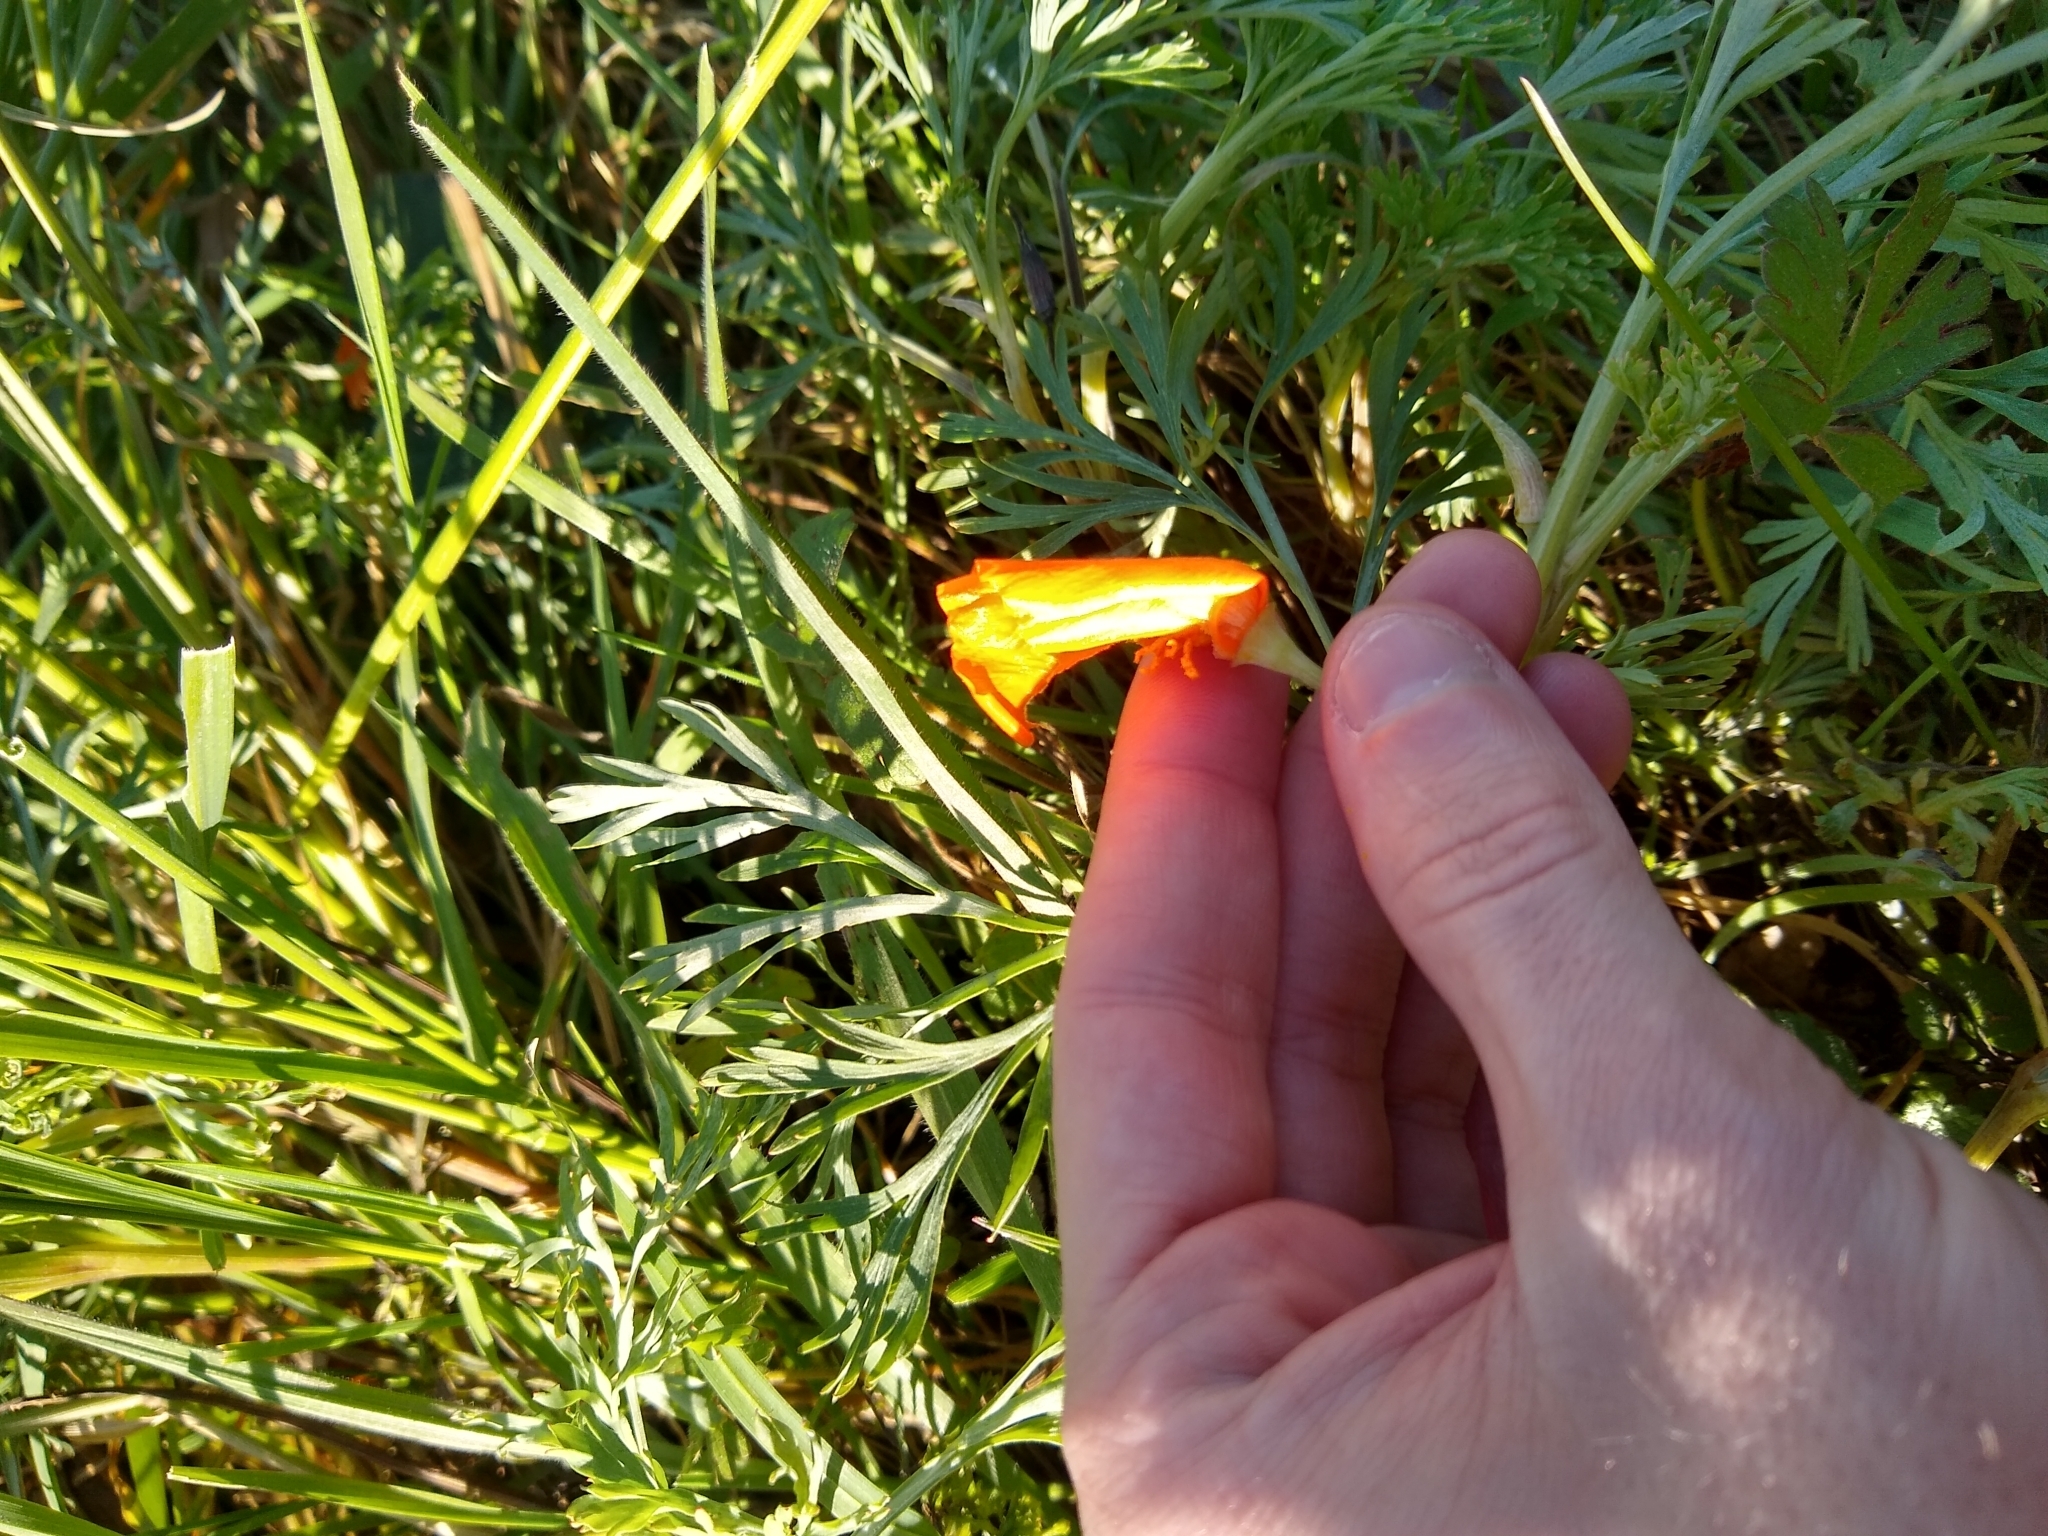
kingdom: Plantae
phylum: Tracheophyta
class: Magnoliopsida
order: Ranunculales
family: Papaveraceae
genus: Eschscholzia
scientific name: Eschscholzia californica
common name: California poppy
